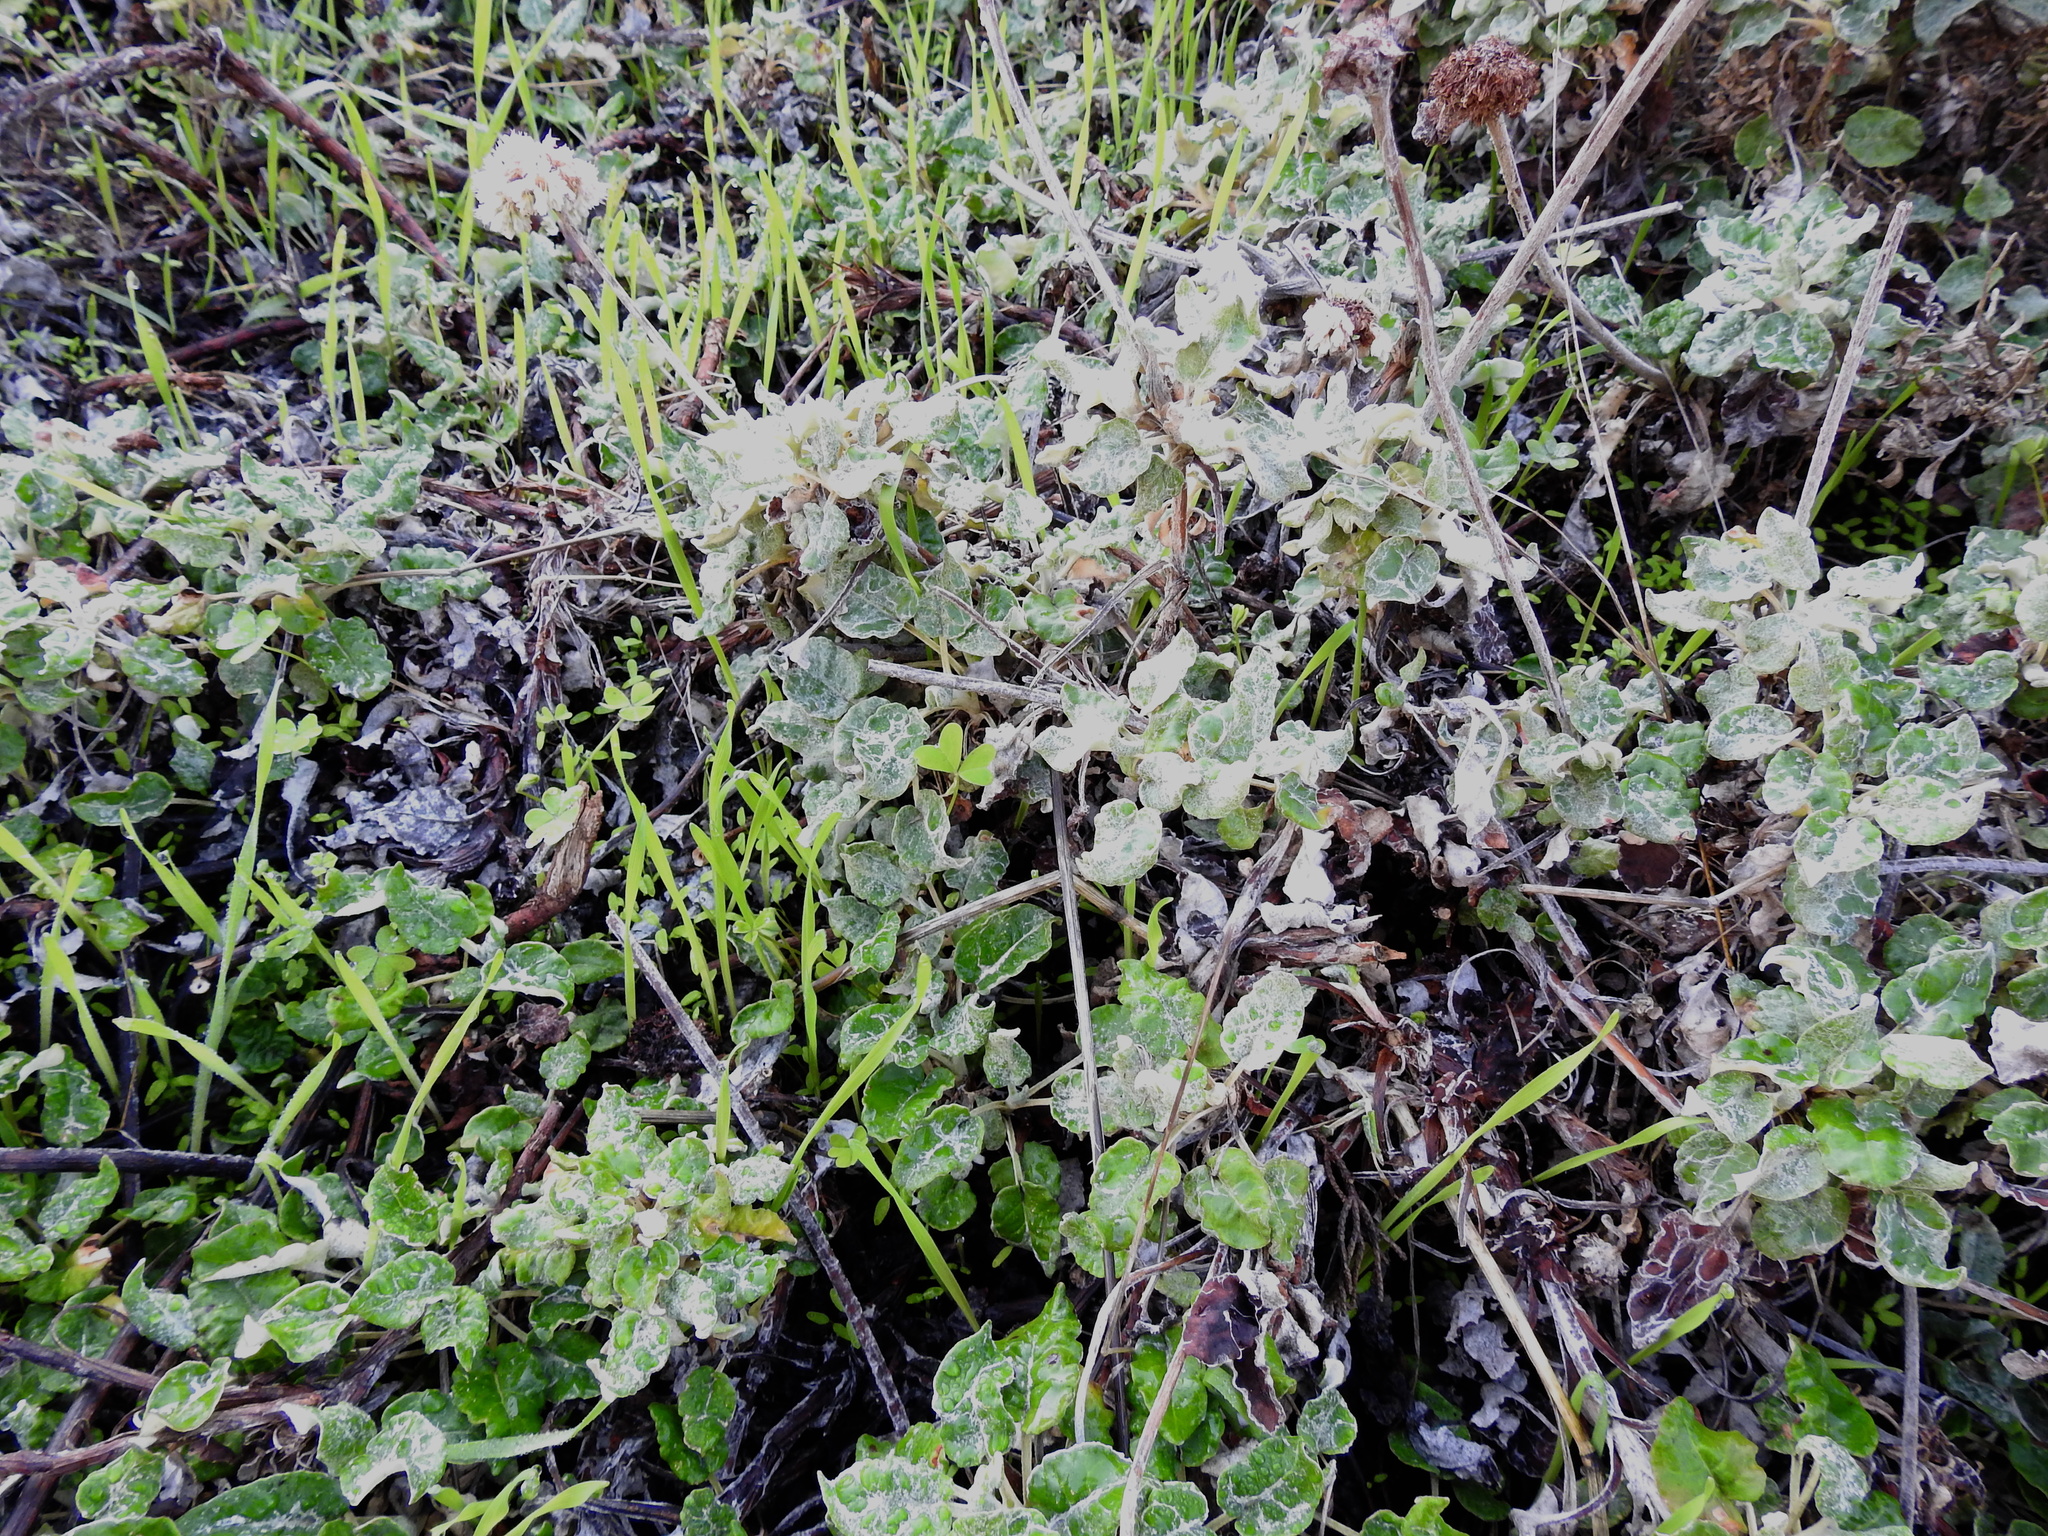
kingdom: Plantae
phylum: Tracheophyta
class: Magnoliopsida
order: Caryophyllales
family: Polygonaceae
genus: Eriogonum
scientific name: Eriogonum latifolium
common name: Seaside wild buckwheat
